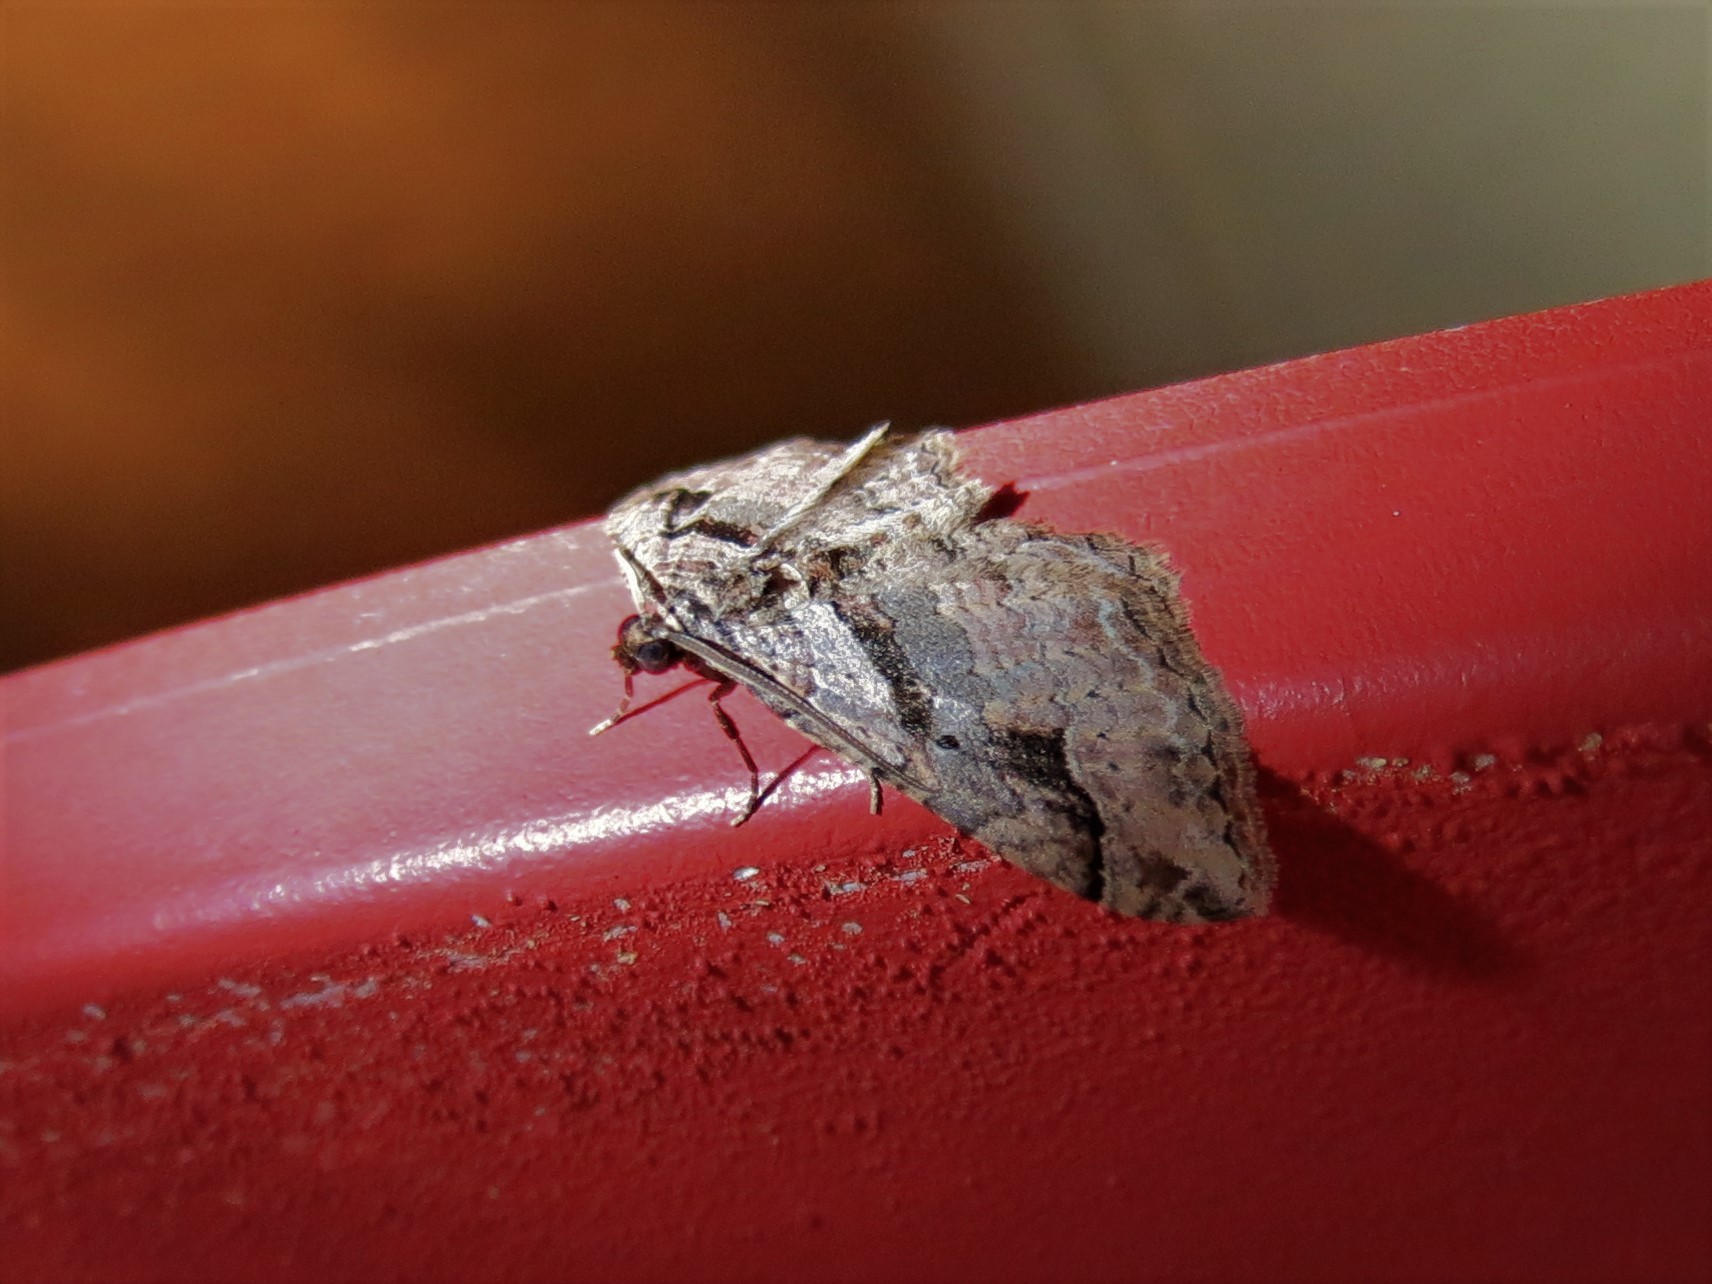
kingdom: Animalia
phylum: Arthropoda
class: Insecta
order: Lepidoptera
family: Geometridae
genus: Costaconvexa
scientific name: Costaconvexa centrostrigaria
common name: Bent-line carpet
